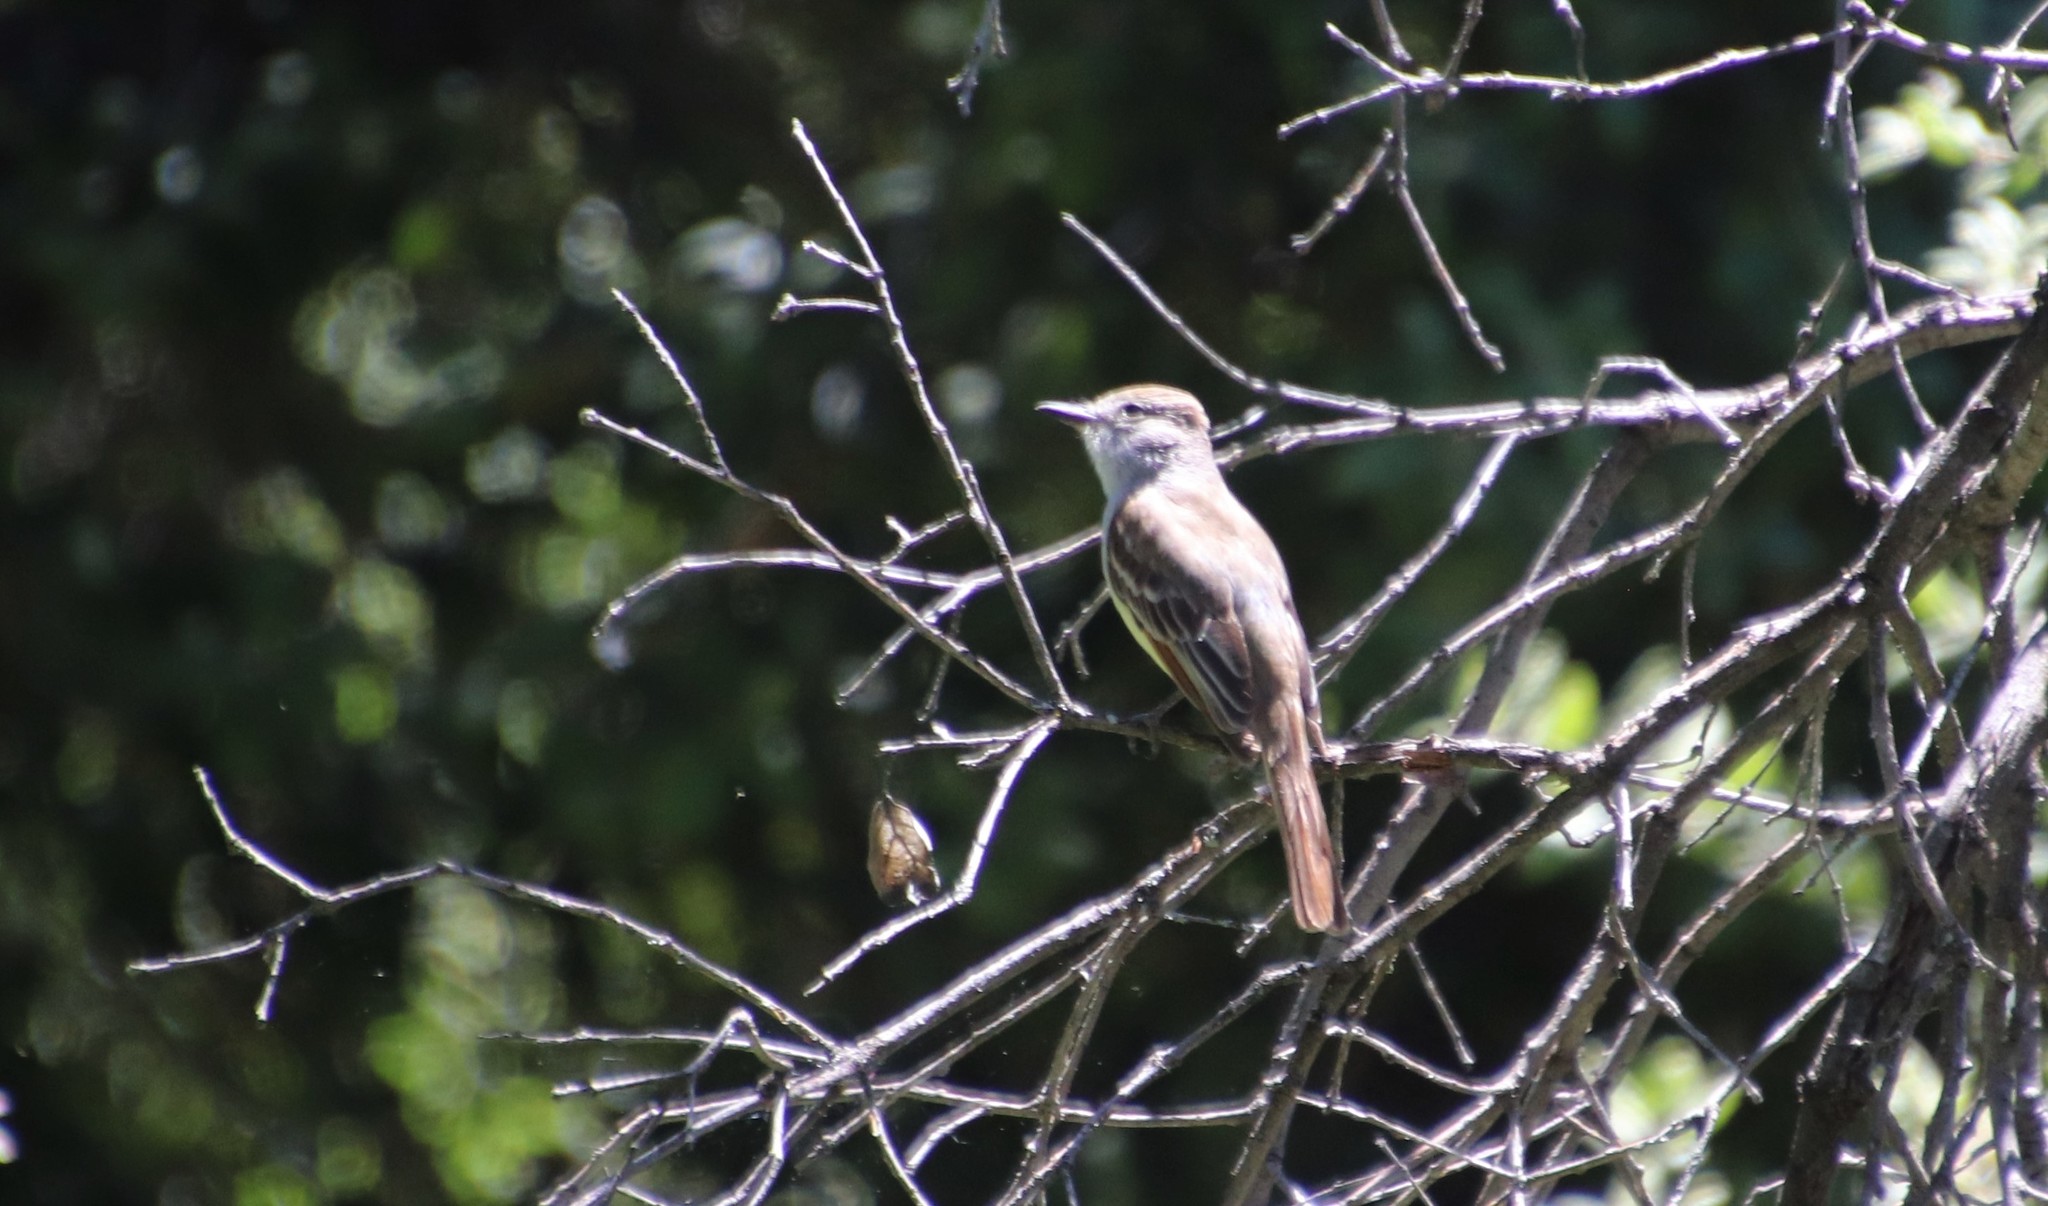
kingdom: Animalia
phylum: Chordata
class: Aves
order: Passeriformes
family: Tyrannidae
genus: Myiarchus
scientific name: Myiarchus cinerascens
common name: Ash-throated flycatcher
